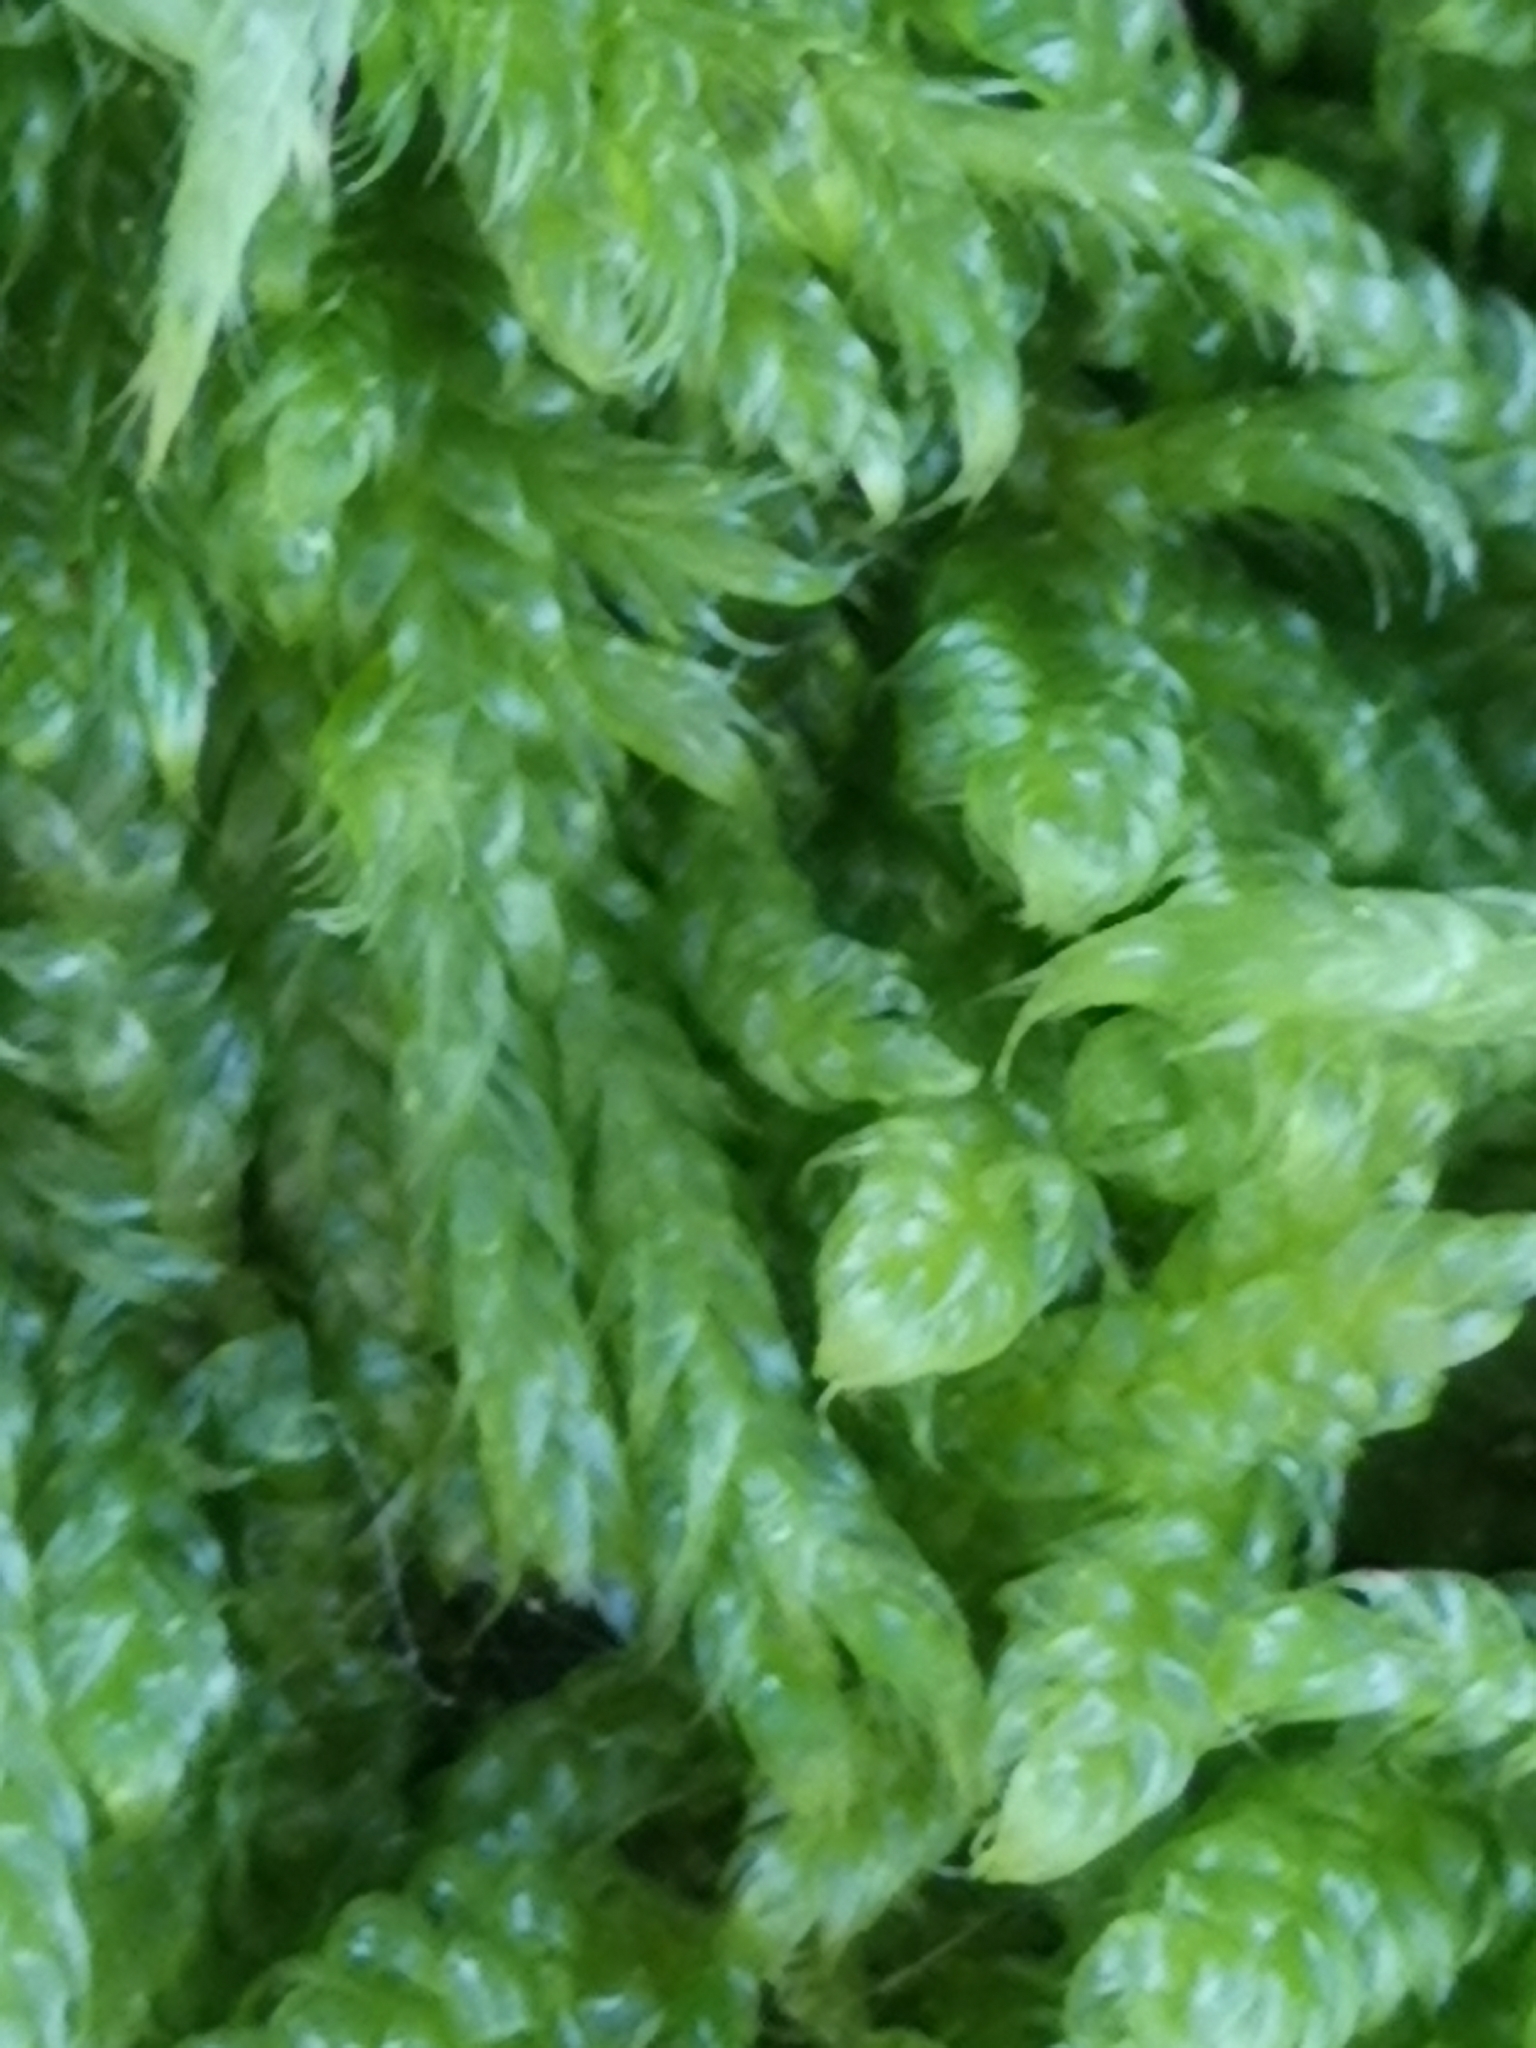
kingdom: Plantae
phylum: Bryophyta
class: Bryopsida
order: Hypnales
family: Hypnaceae
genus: Hypnum
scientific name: Hypnum cupressiforme
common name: Cypress-leaved plait-moss
